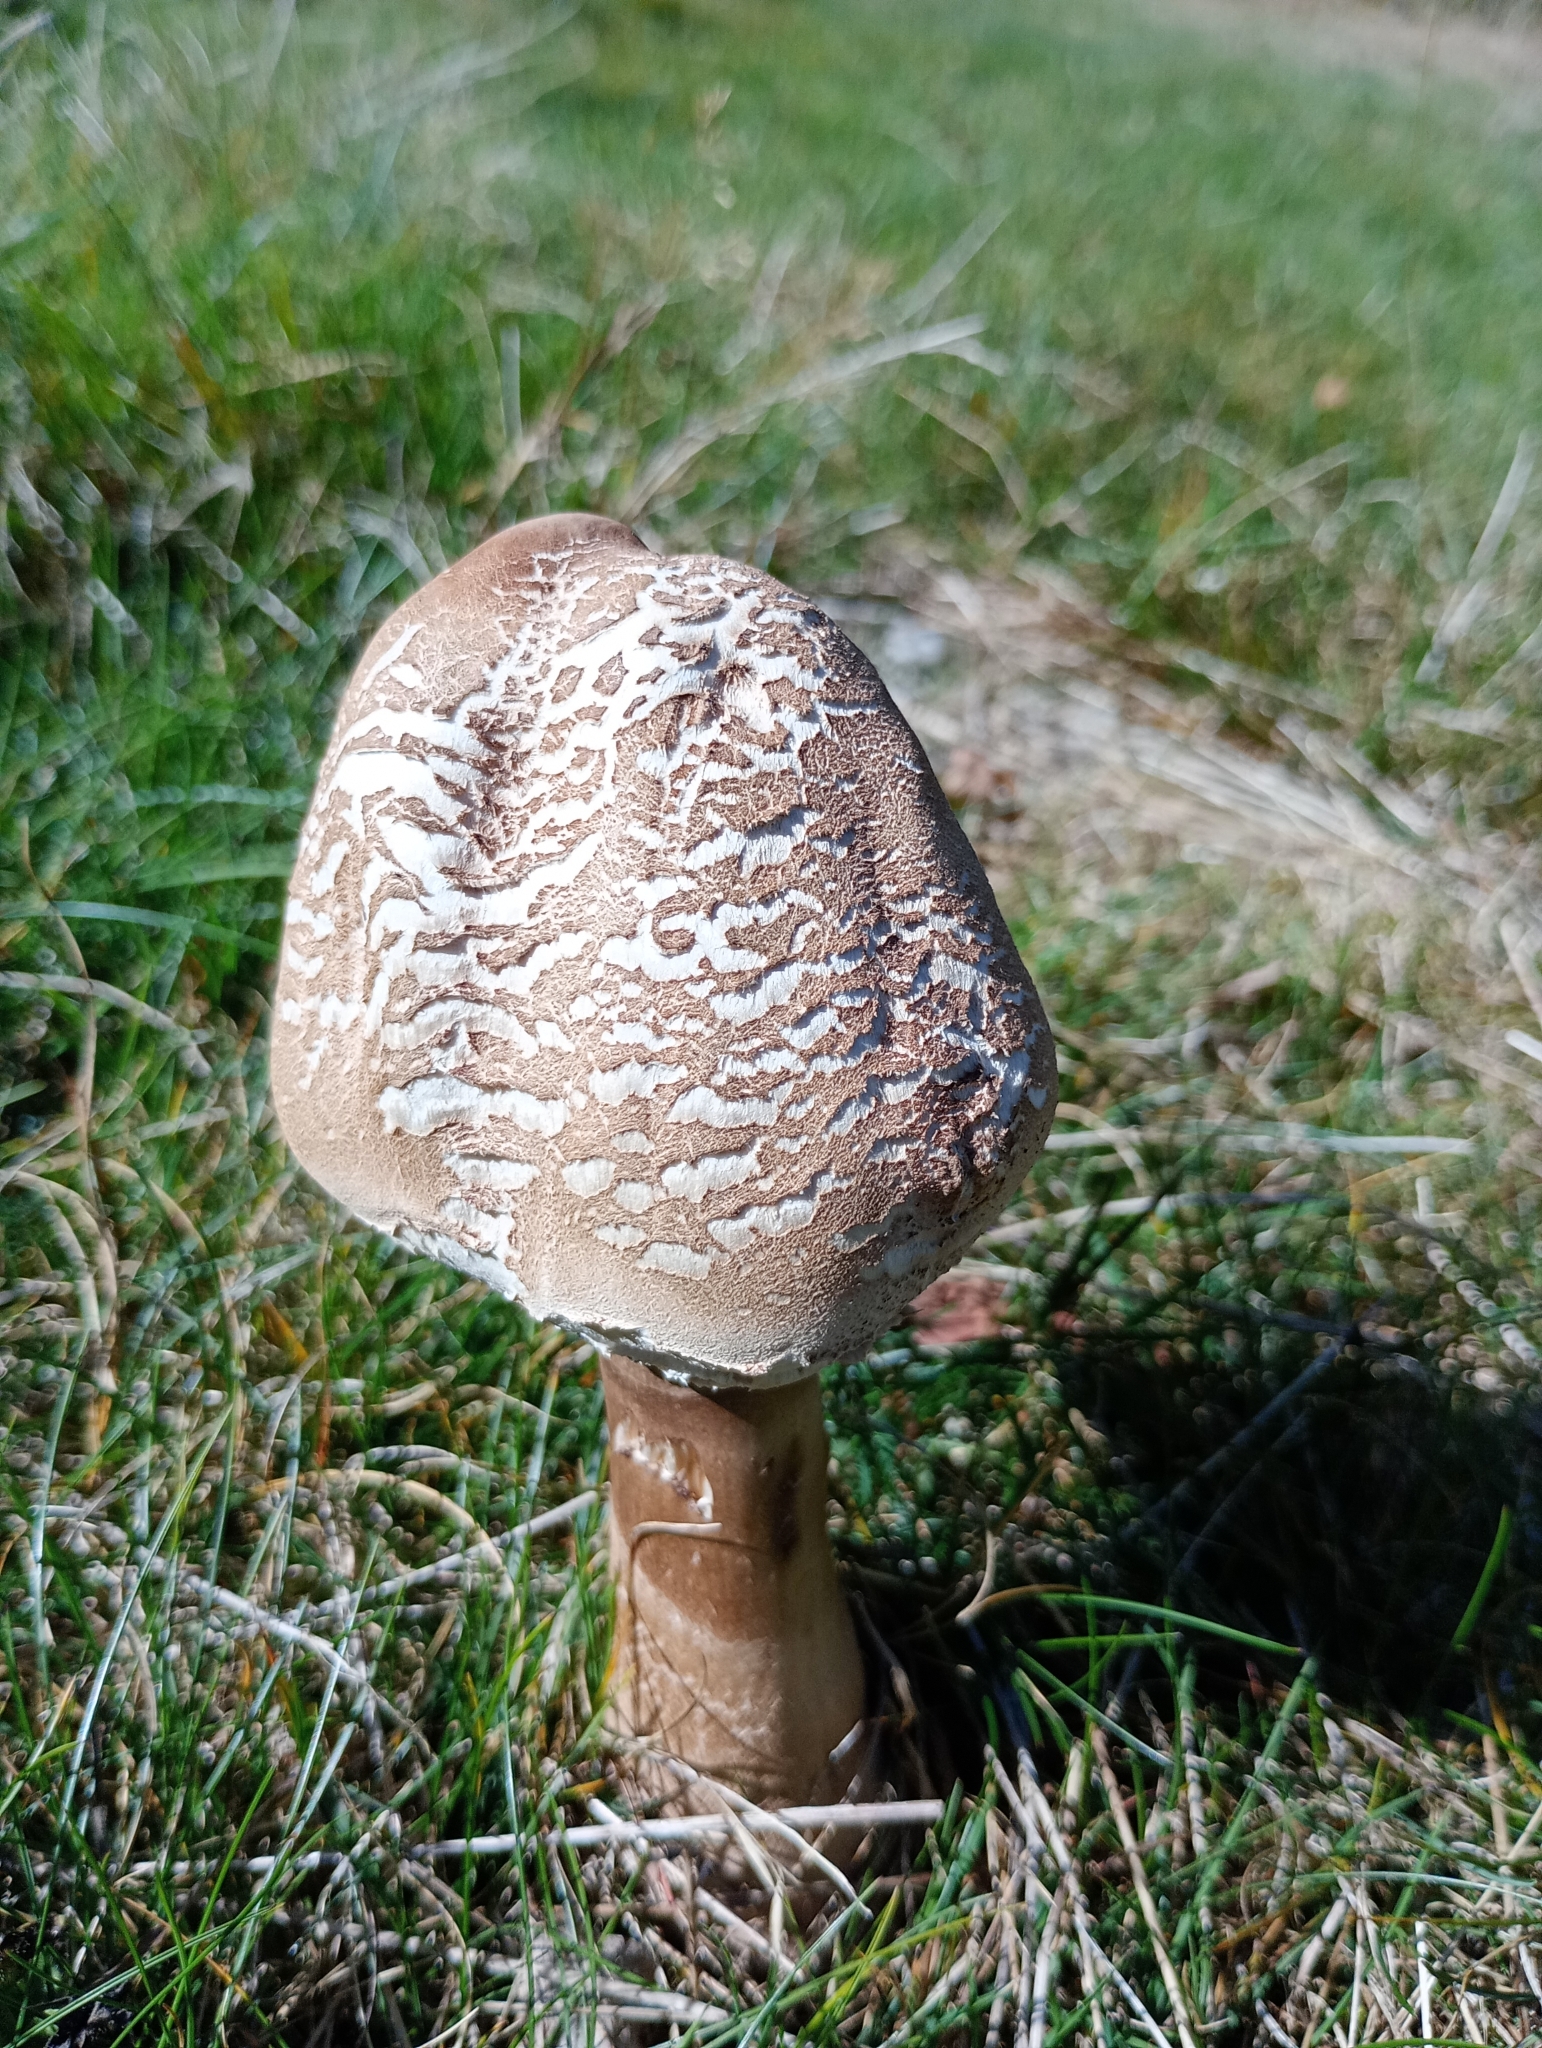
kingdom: Fungi
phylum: Basidiomycota
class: Agaricomycetes
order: Agaricales
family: Agaricaceae
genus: Macrolepiota
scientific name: Macrolepiota procera
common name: Parasol
